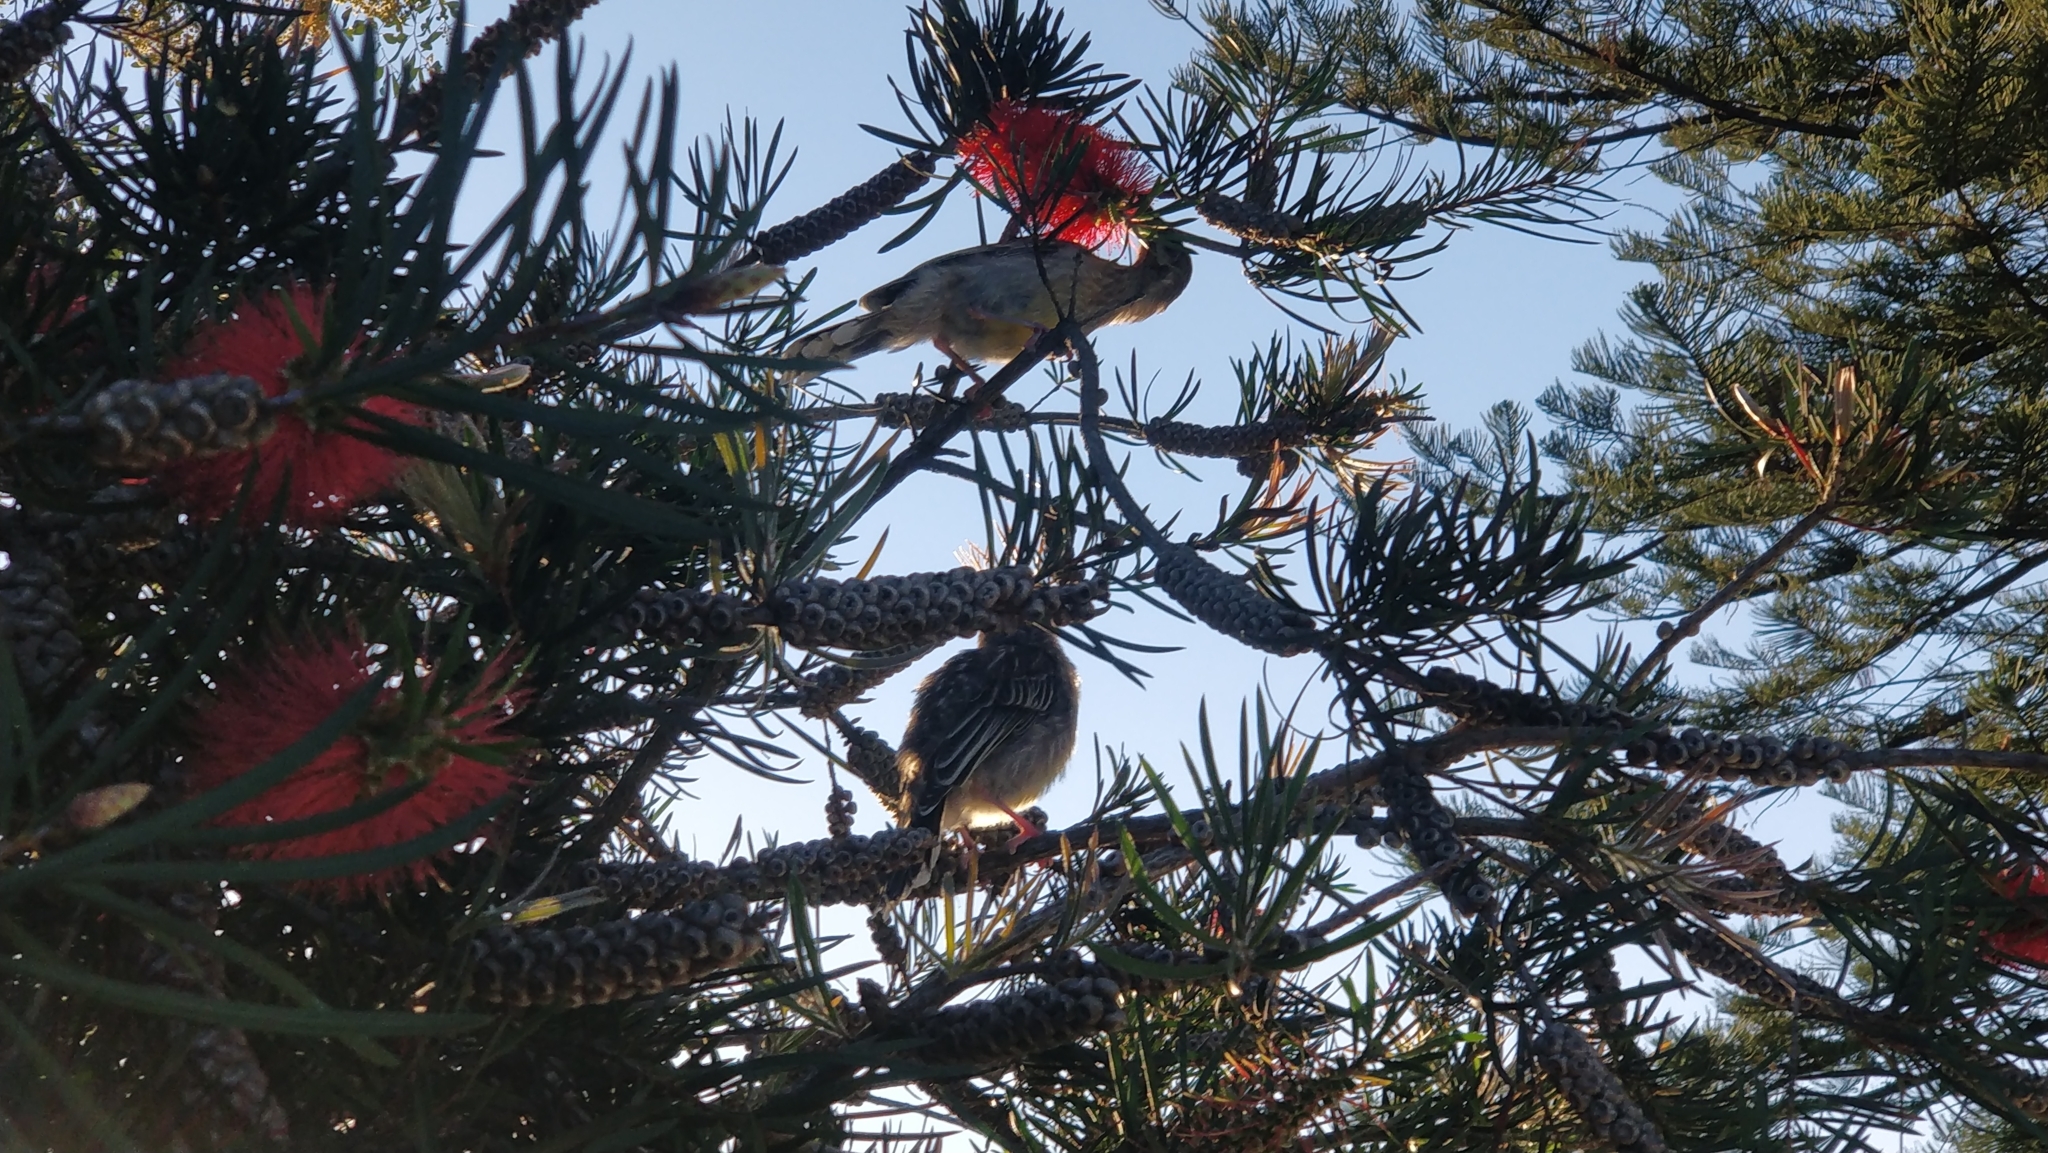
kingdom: Animalia
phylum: Chordata
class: Aves
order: Passeriformes
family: Meliphagidae
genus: Anthochaera
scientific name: Anthochaera carunculata
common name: Red wattlebird
